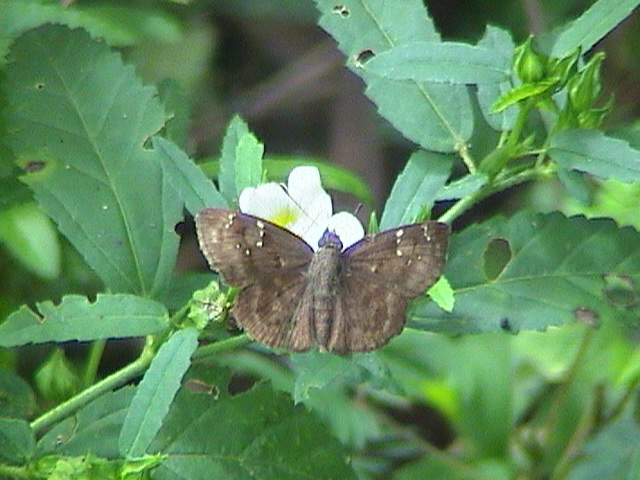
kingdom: Animalia
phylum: Arthropoda
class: Insecta
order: Lepidoptera
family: Hesperiidae
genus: Sarangesa
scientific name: Sarangesa dasahara
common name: Common small flat
